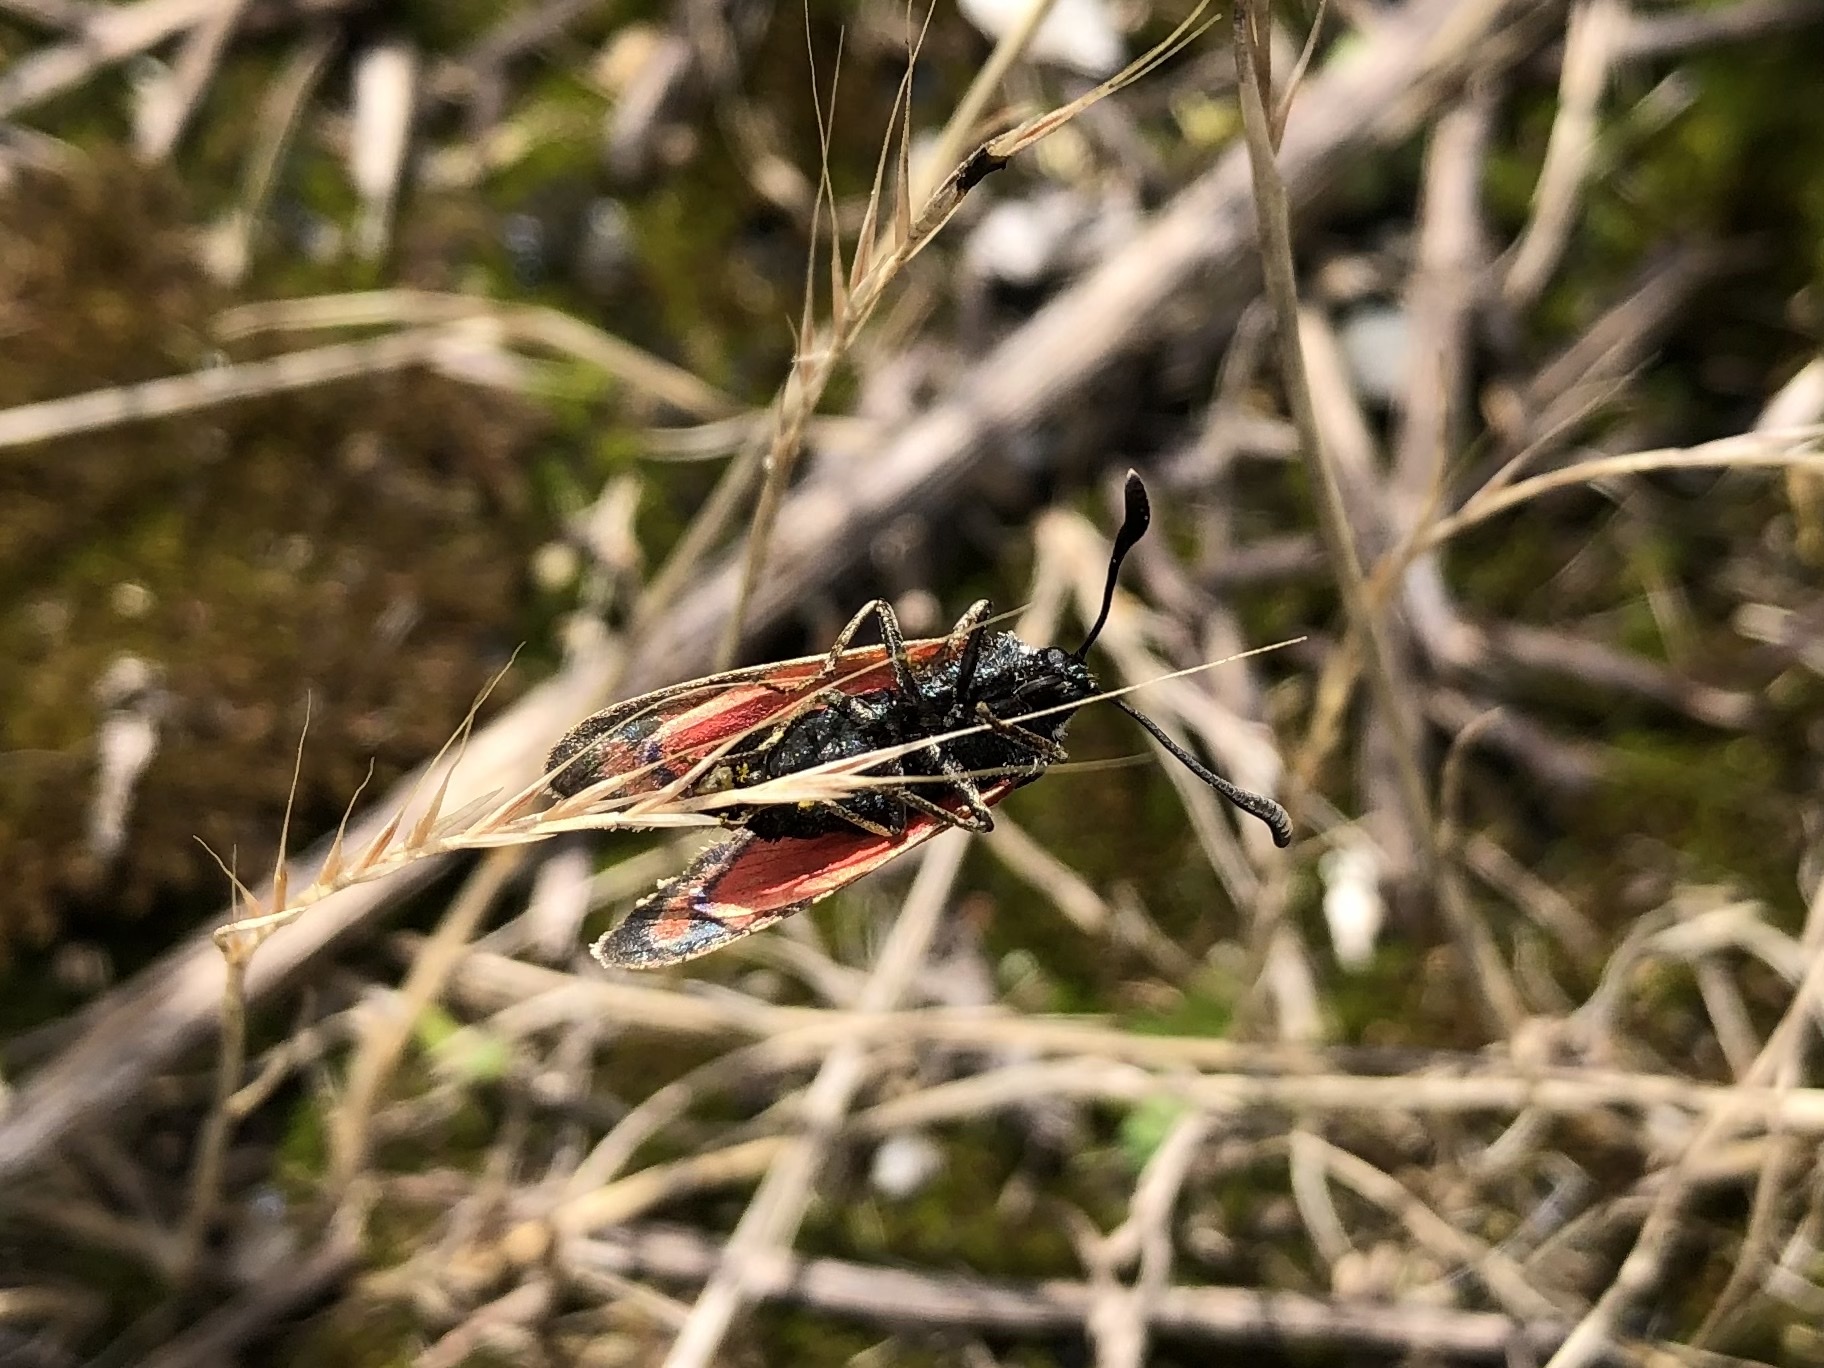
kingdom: Animalia
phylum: Arthropoda
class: Insecta
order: Lepidoptera
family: Zygaenidae
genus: Zygaena
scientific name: Zygaena carniolica
